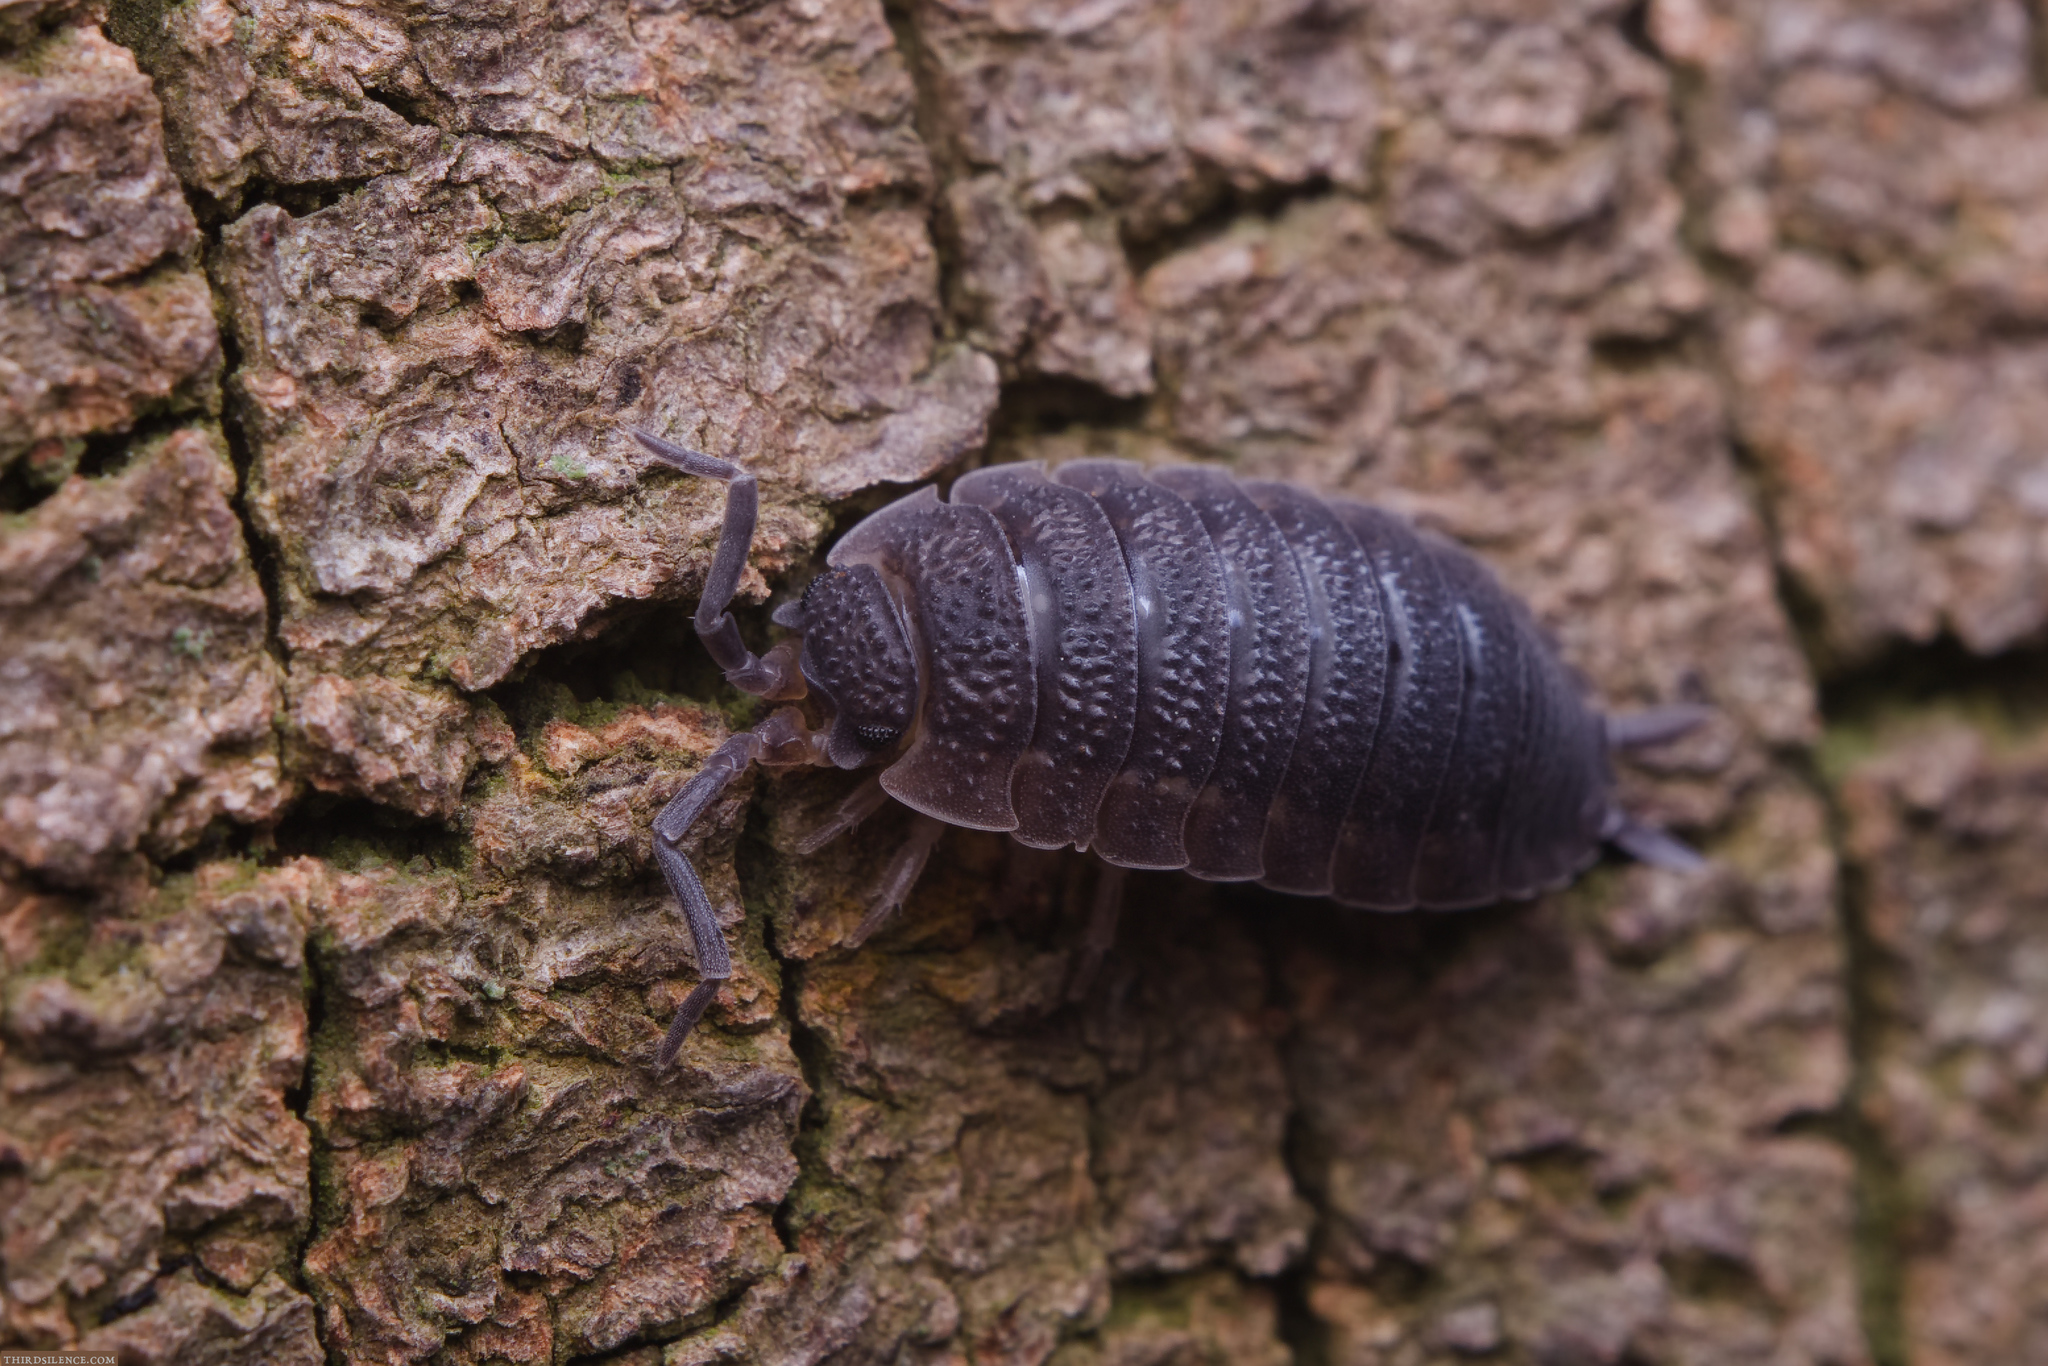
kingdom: Animalia
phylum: Arthropoda
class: Malacostraca
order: Isopoda
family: Porcellionidae
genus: Porcellio
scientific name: Porcellio scaber
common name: Common rough woodlouse
